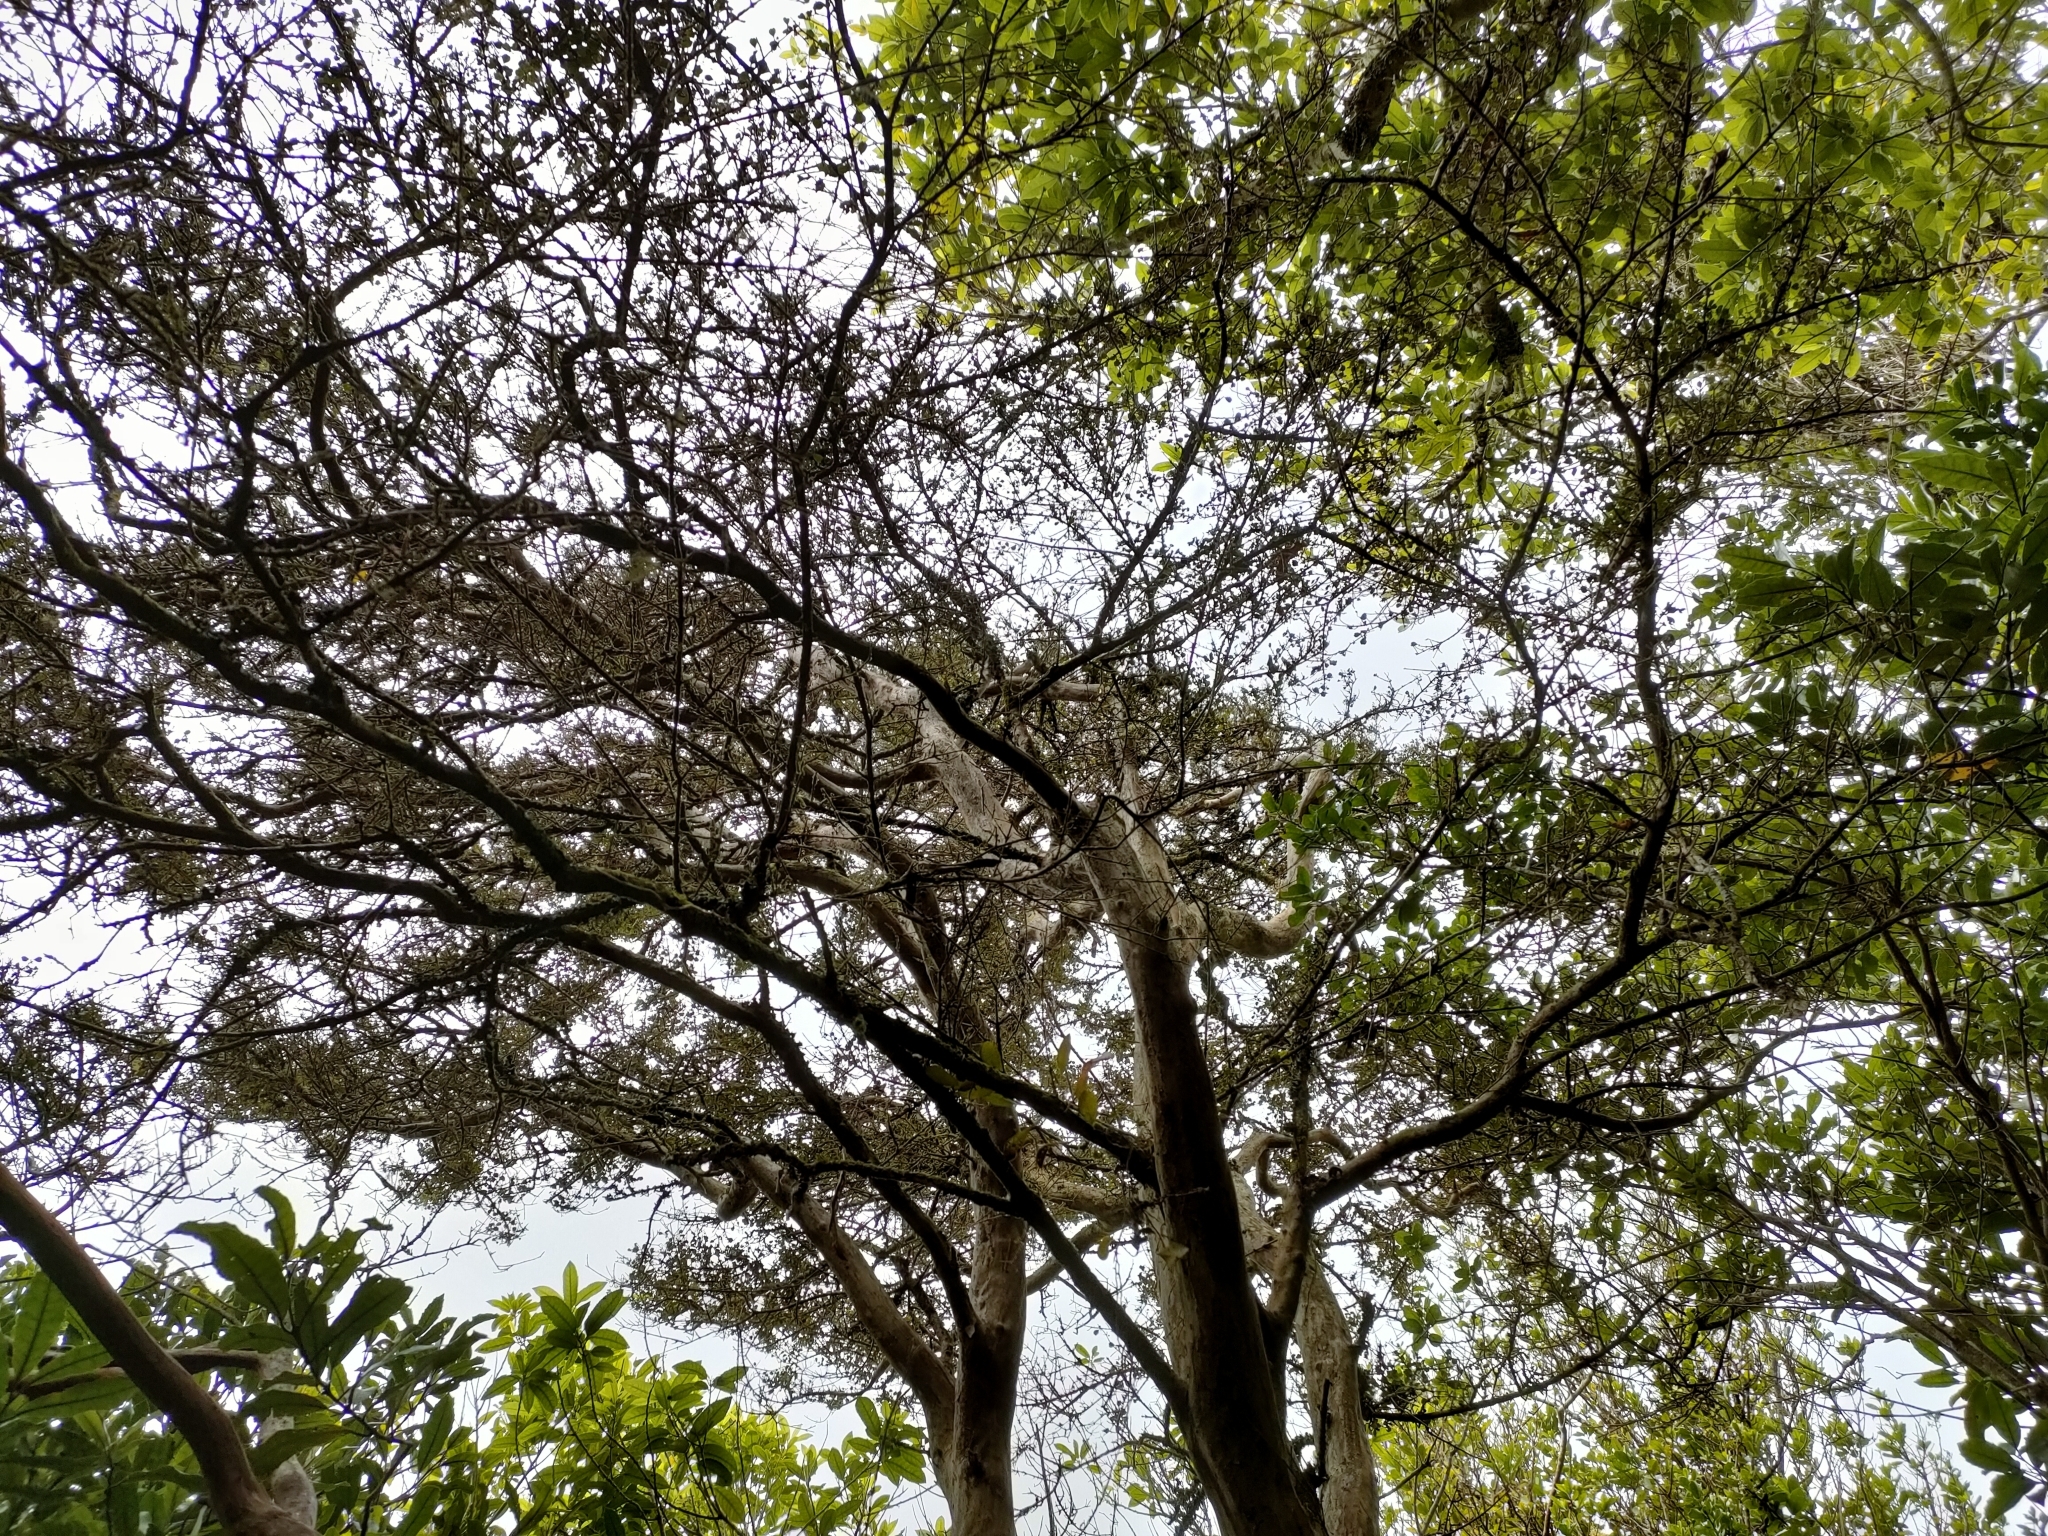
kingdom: Plantae
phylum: Tracheophyta
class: Magnoliopsida
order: Myrtales
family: Myrtaceae
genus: Lophomyrtus
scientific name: Lophomyrtus obcordata
